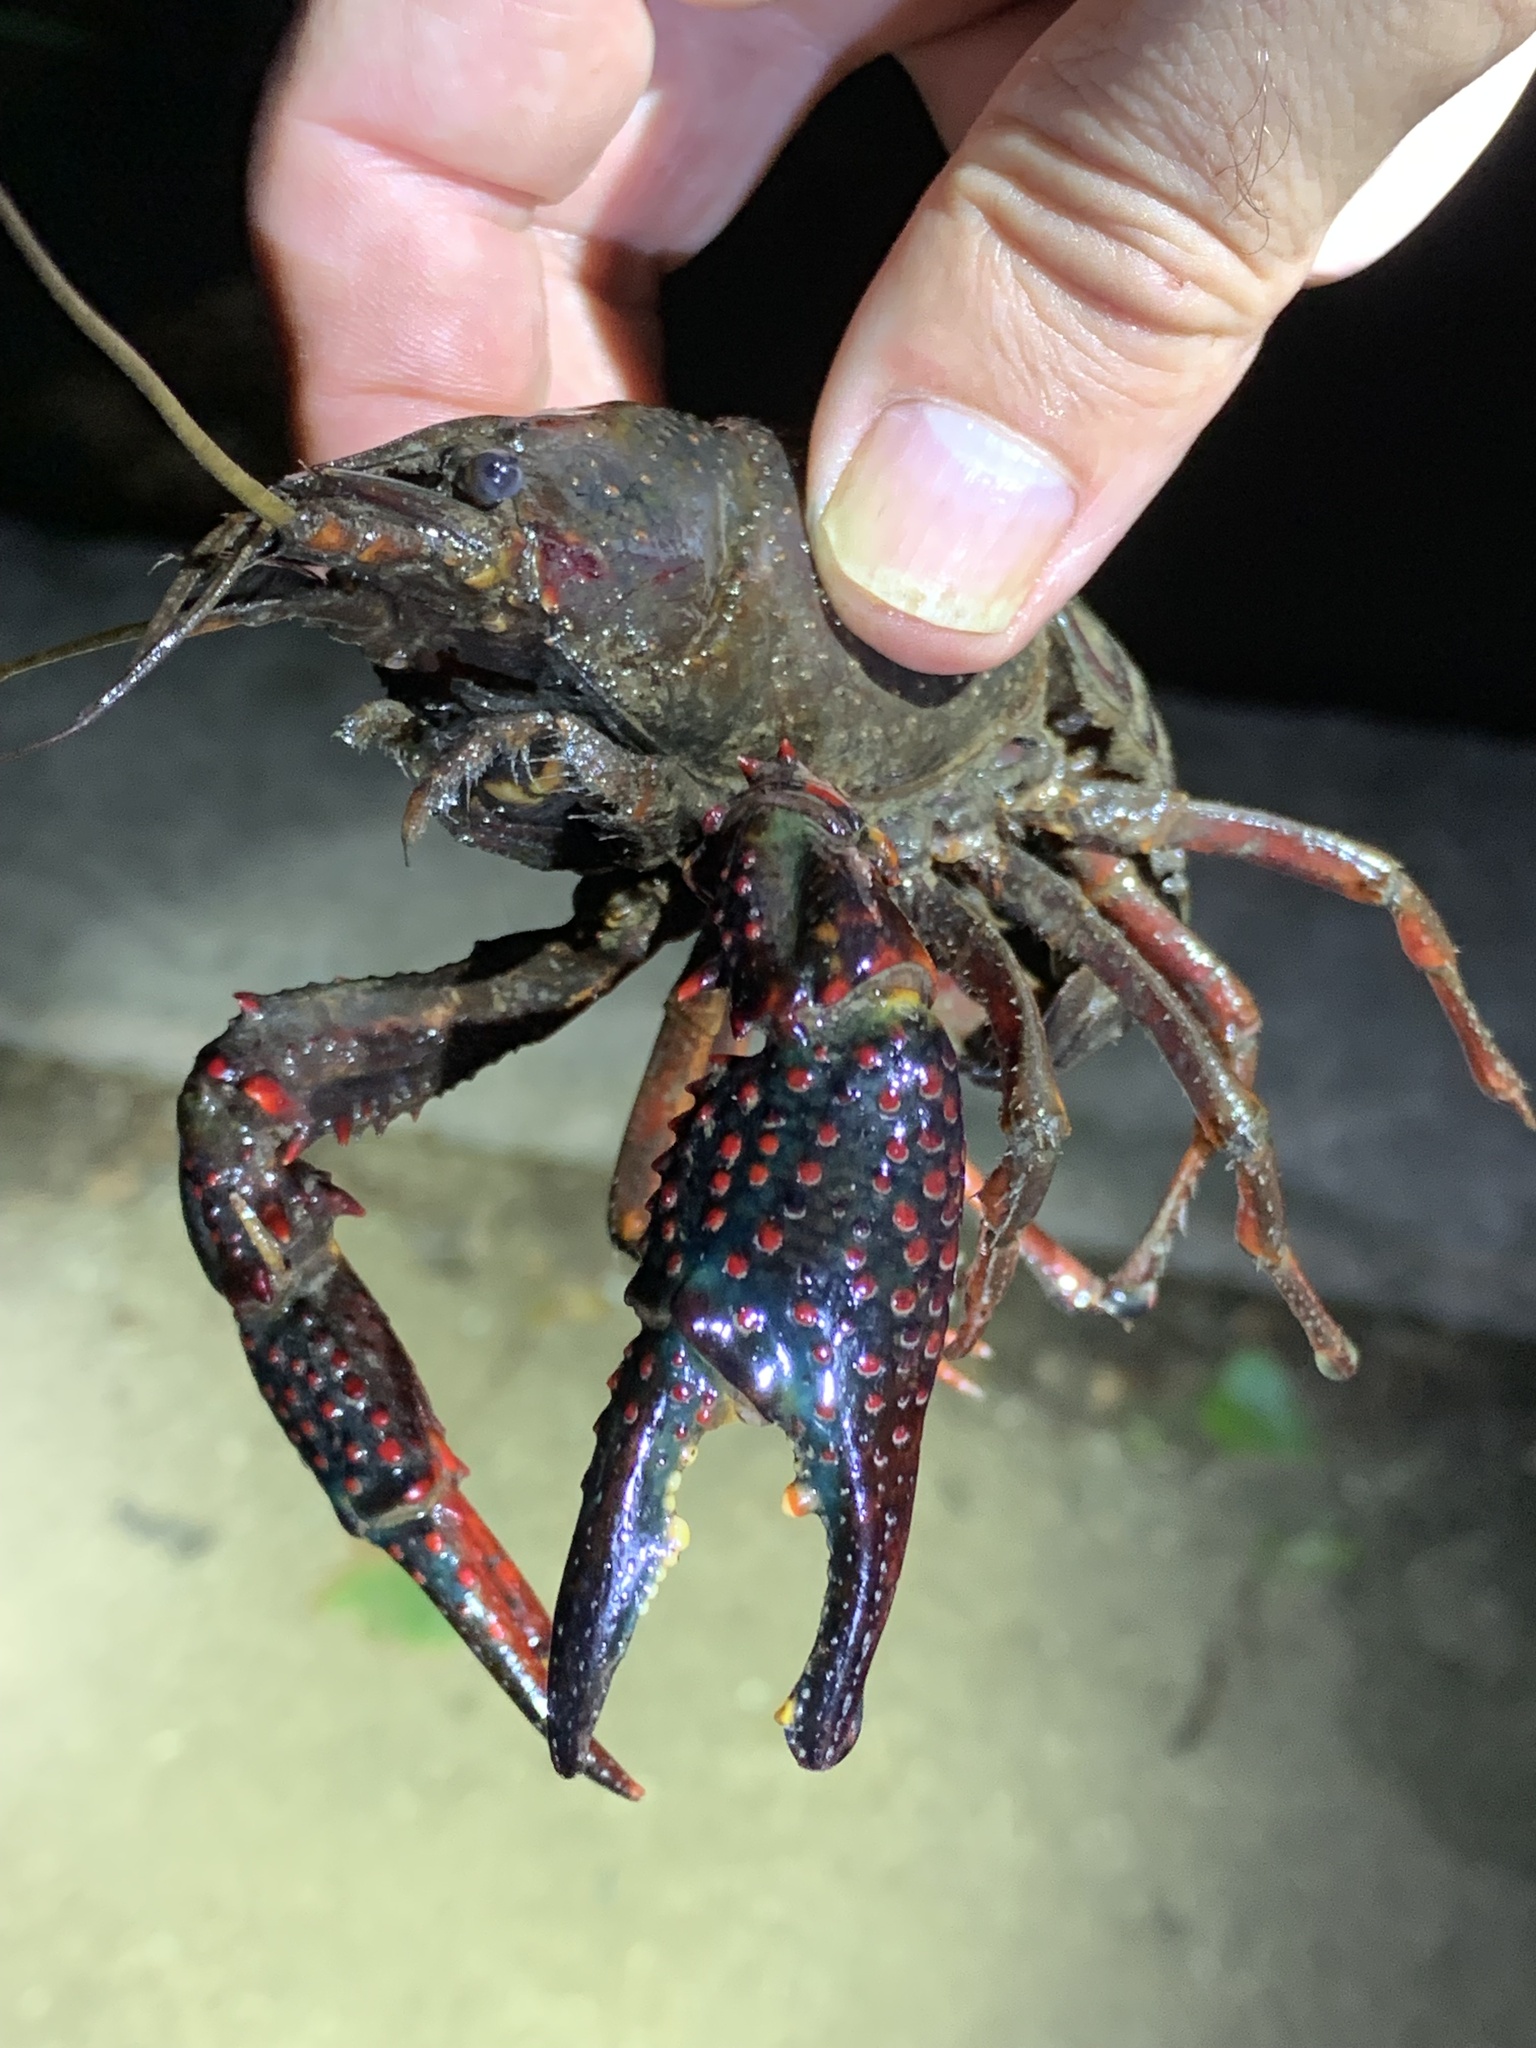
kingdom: Animalia
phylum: Arthropoda
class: Malacostraca
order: Decapoda
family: Cambaridae
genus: Procambarus
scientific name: Procambarus clarkii
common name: Red swamp crayfish
